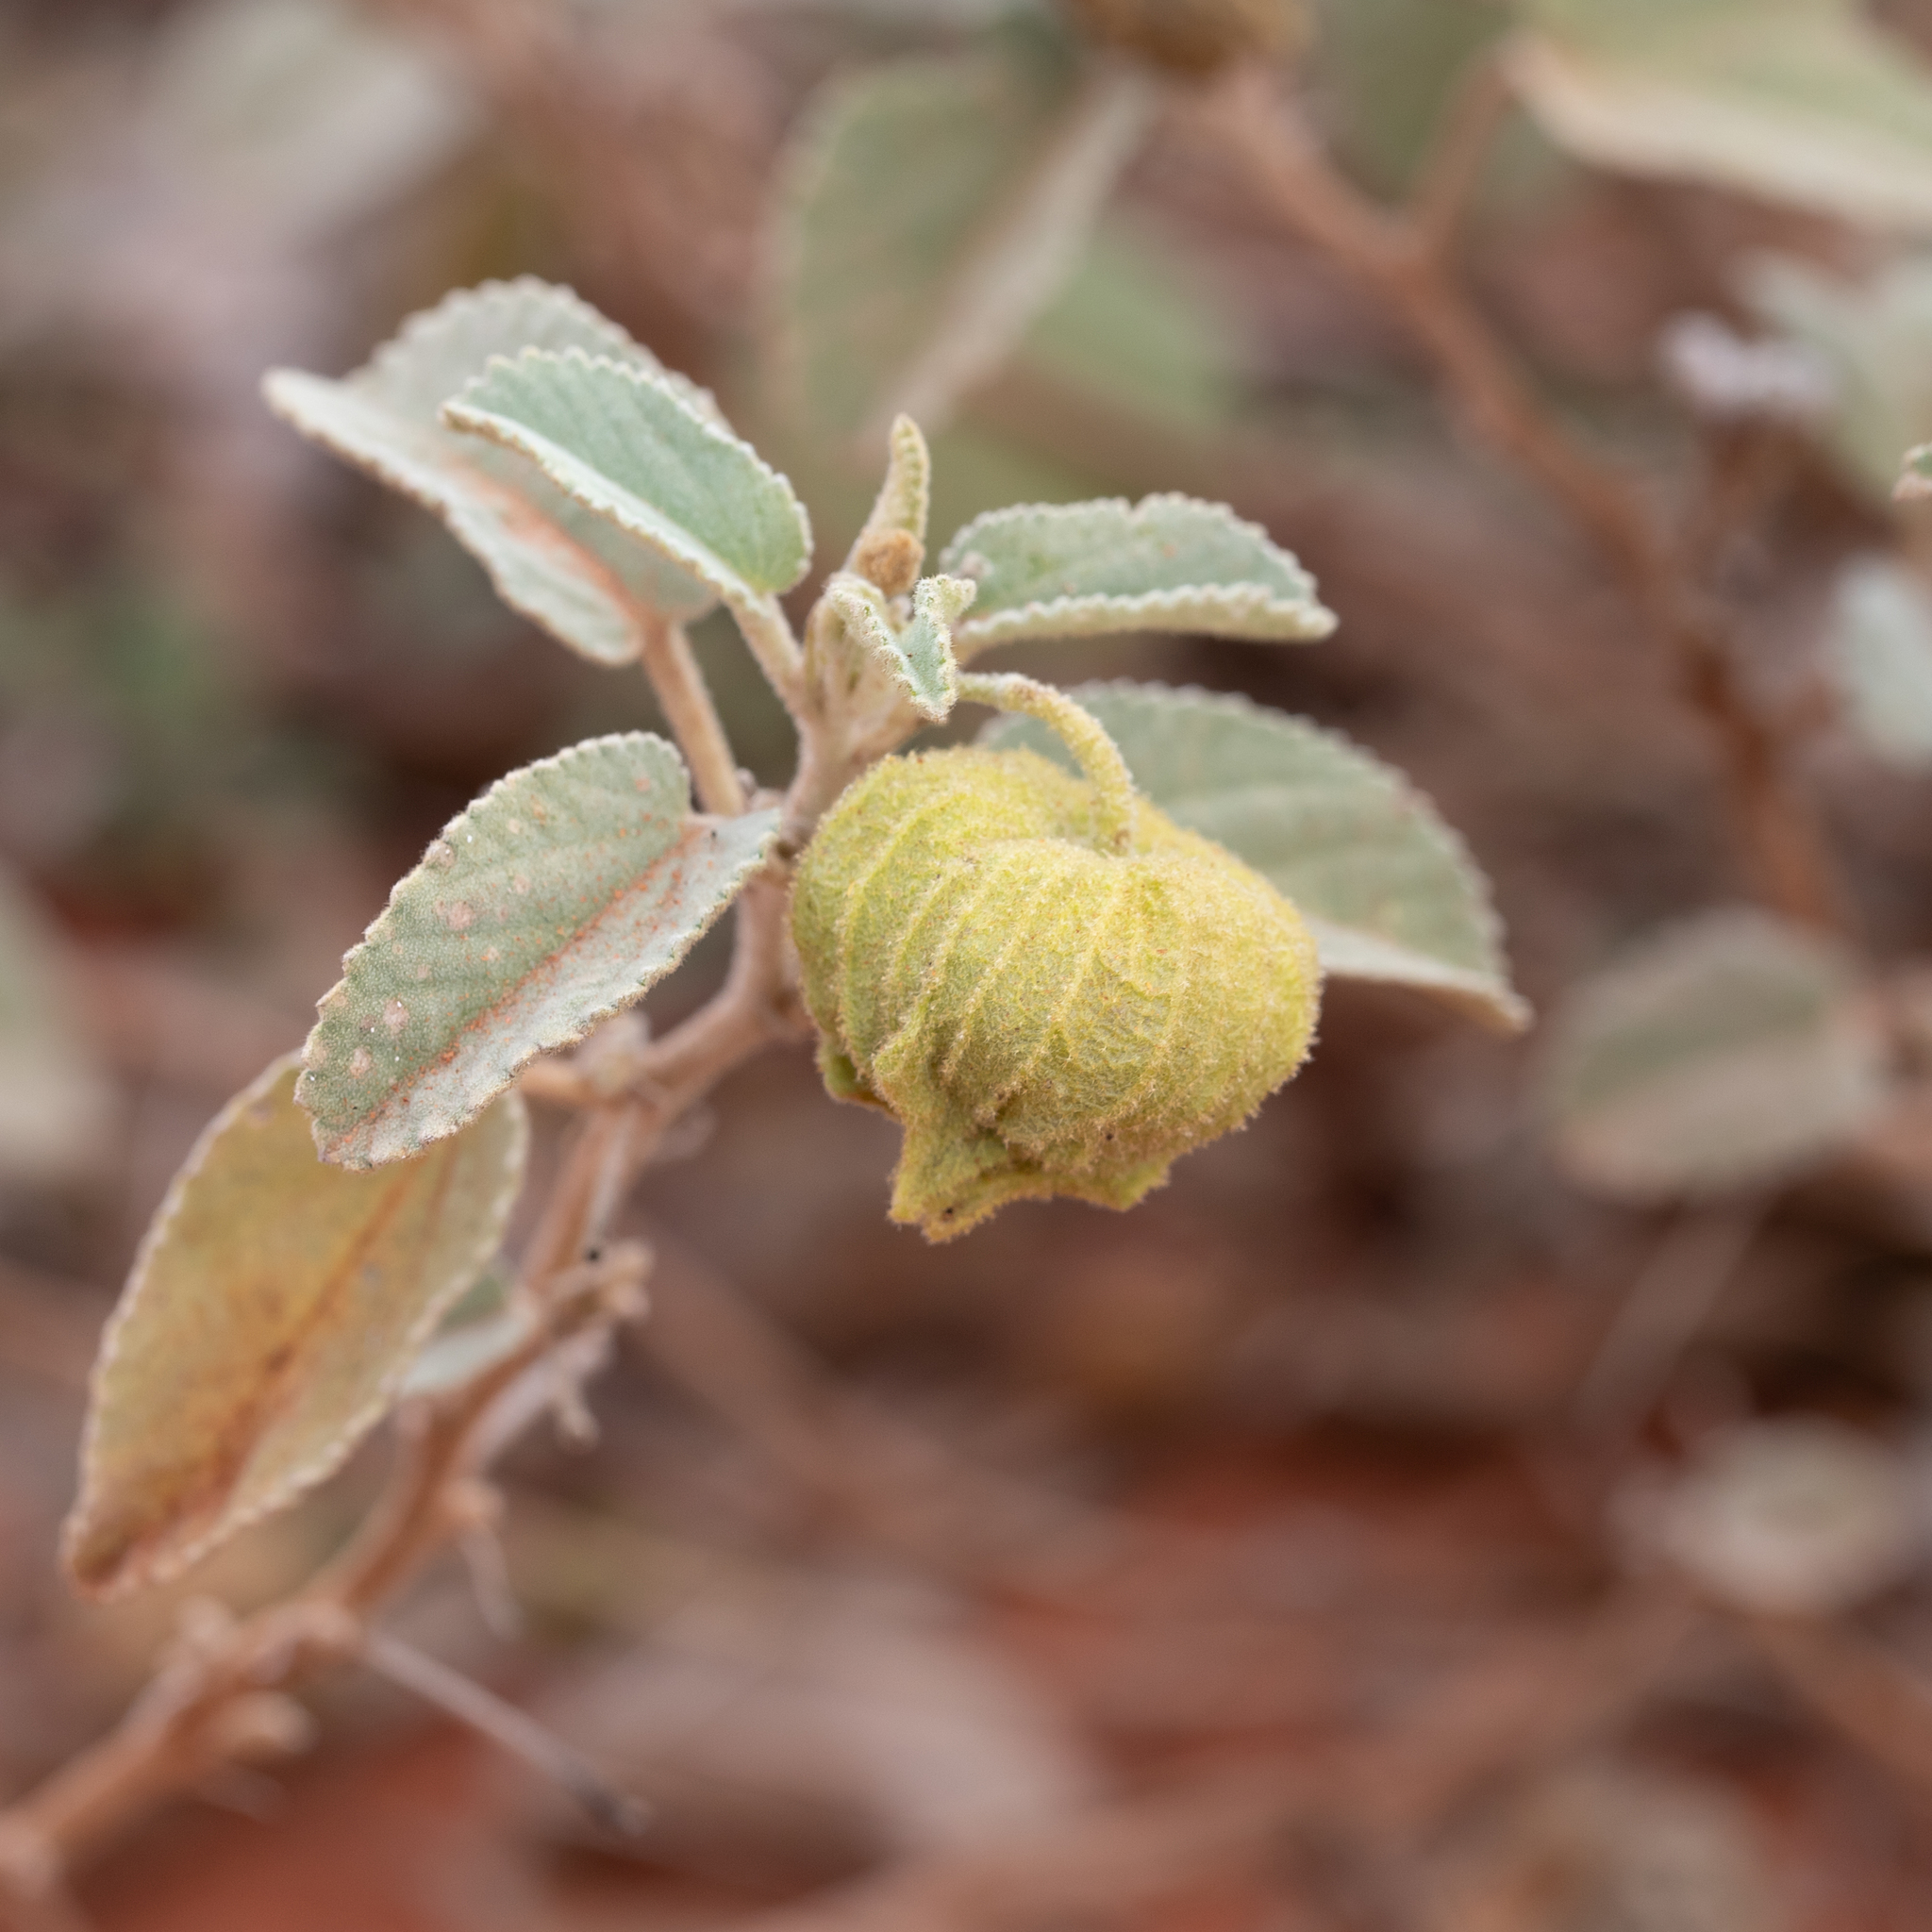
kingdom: Plantae
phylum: Tracheophyta
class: Magnoliopsida
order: Malvales
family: Malvaceae
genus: Sida
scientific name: Sida platycalyx
